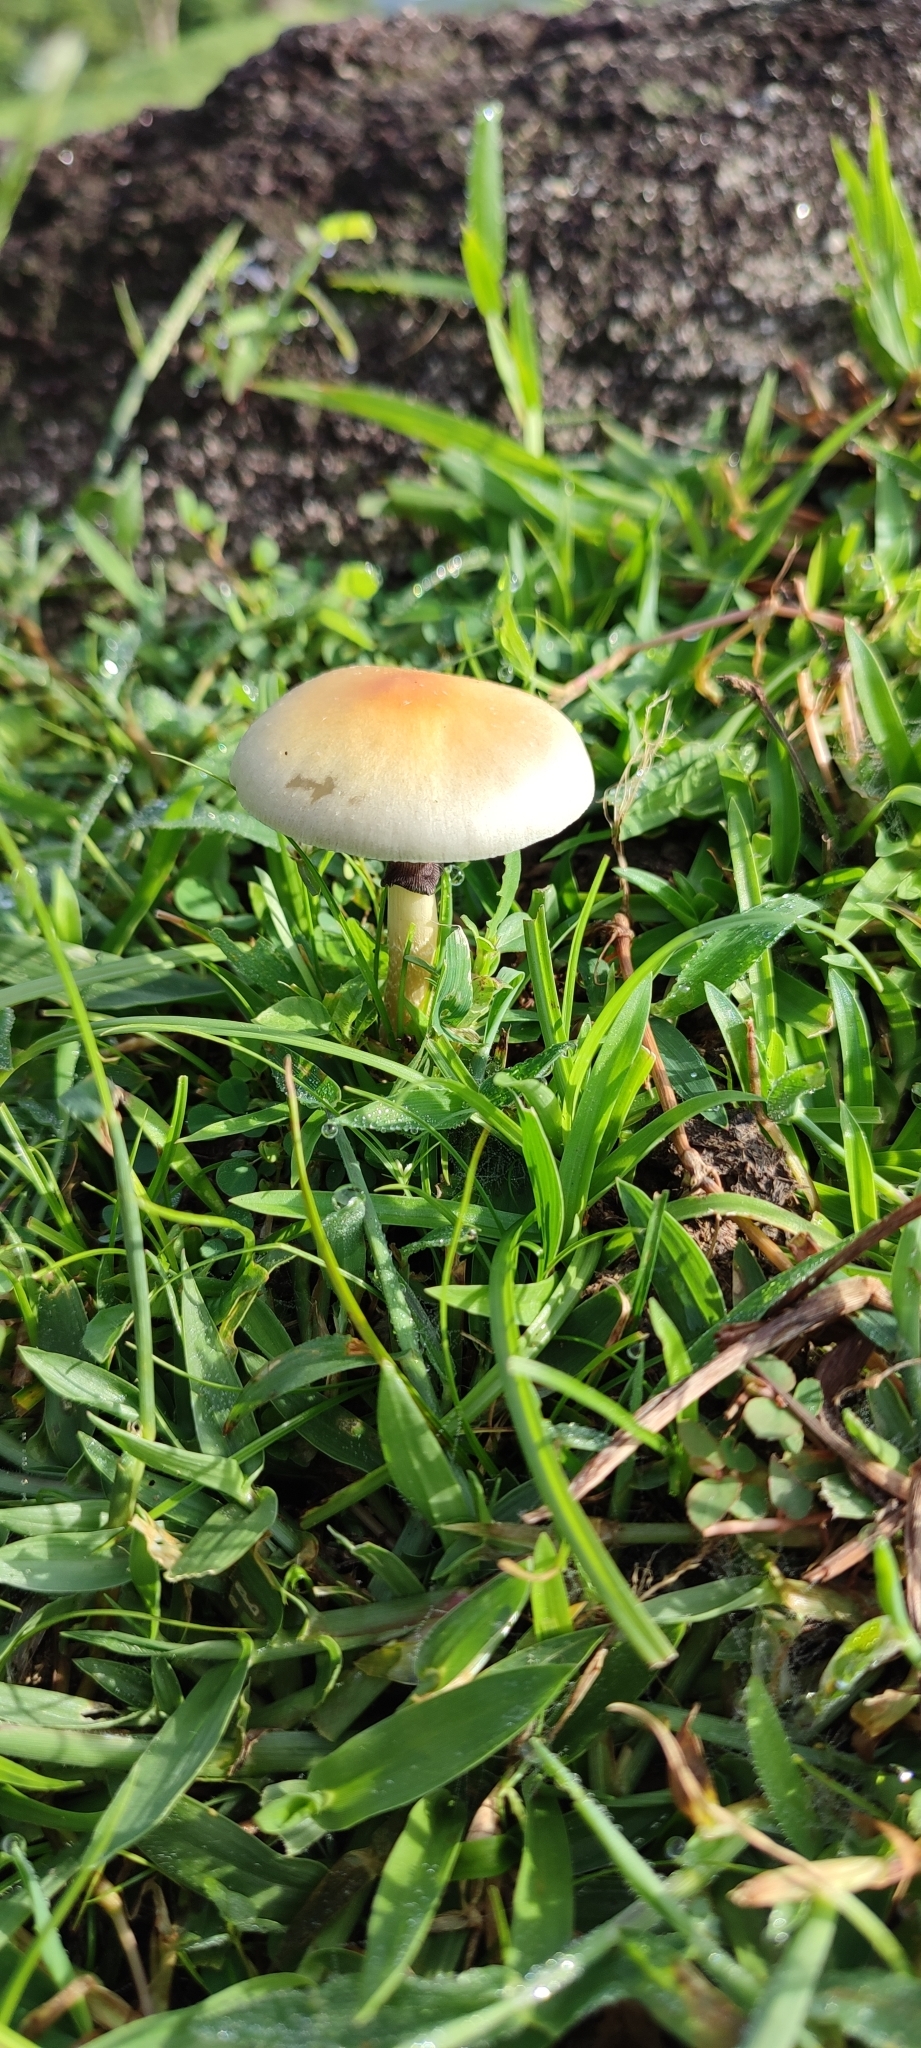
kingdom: Fungi
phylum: Basidiomycota
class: Agaricomycetes
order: Agaricales
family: Hymenogastraceae
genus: Psilocybe
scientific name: Psilocybe cubensis
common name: Golden brownie
